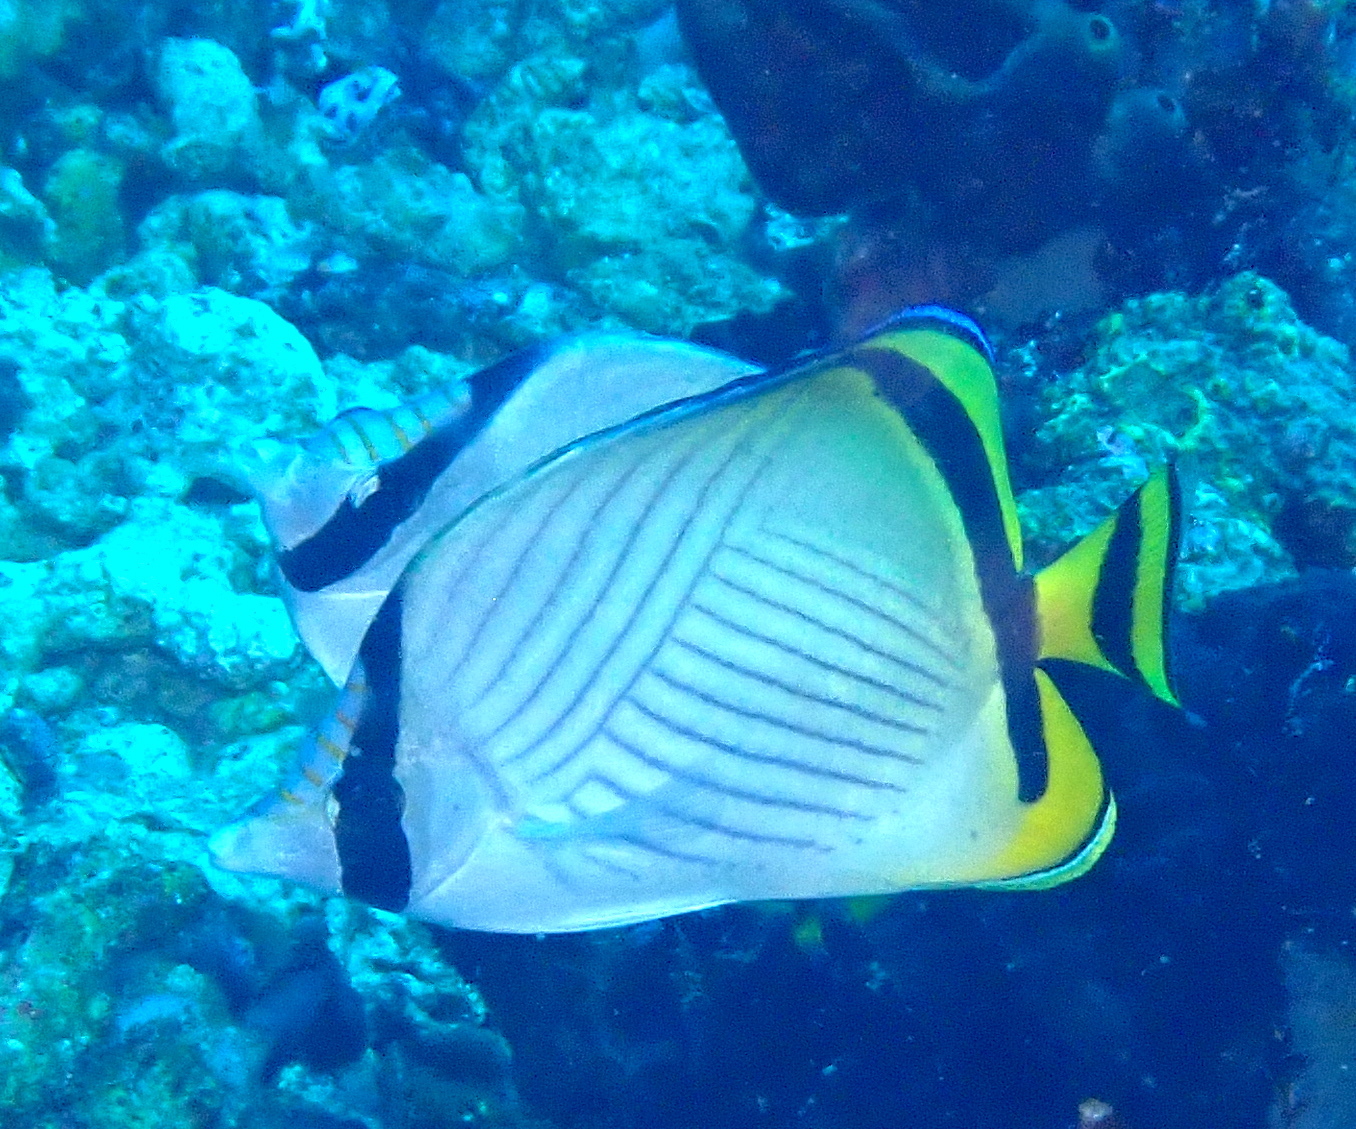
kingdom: Animalia
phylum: Chordata
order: Perciformes
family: Chaetodontidae
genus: Chaetodon
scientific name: Chaetodon vagabundus
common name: Vagabond butterflyfish
